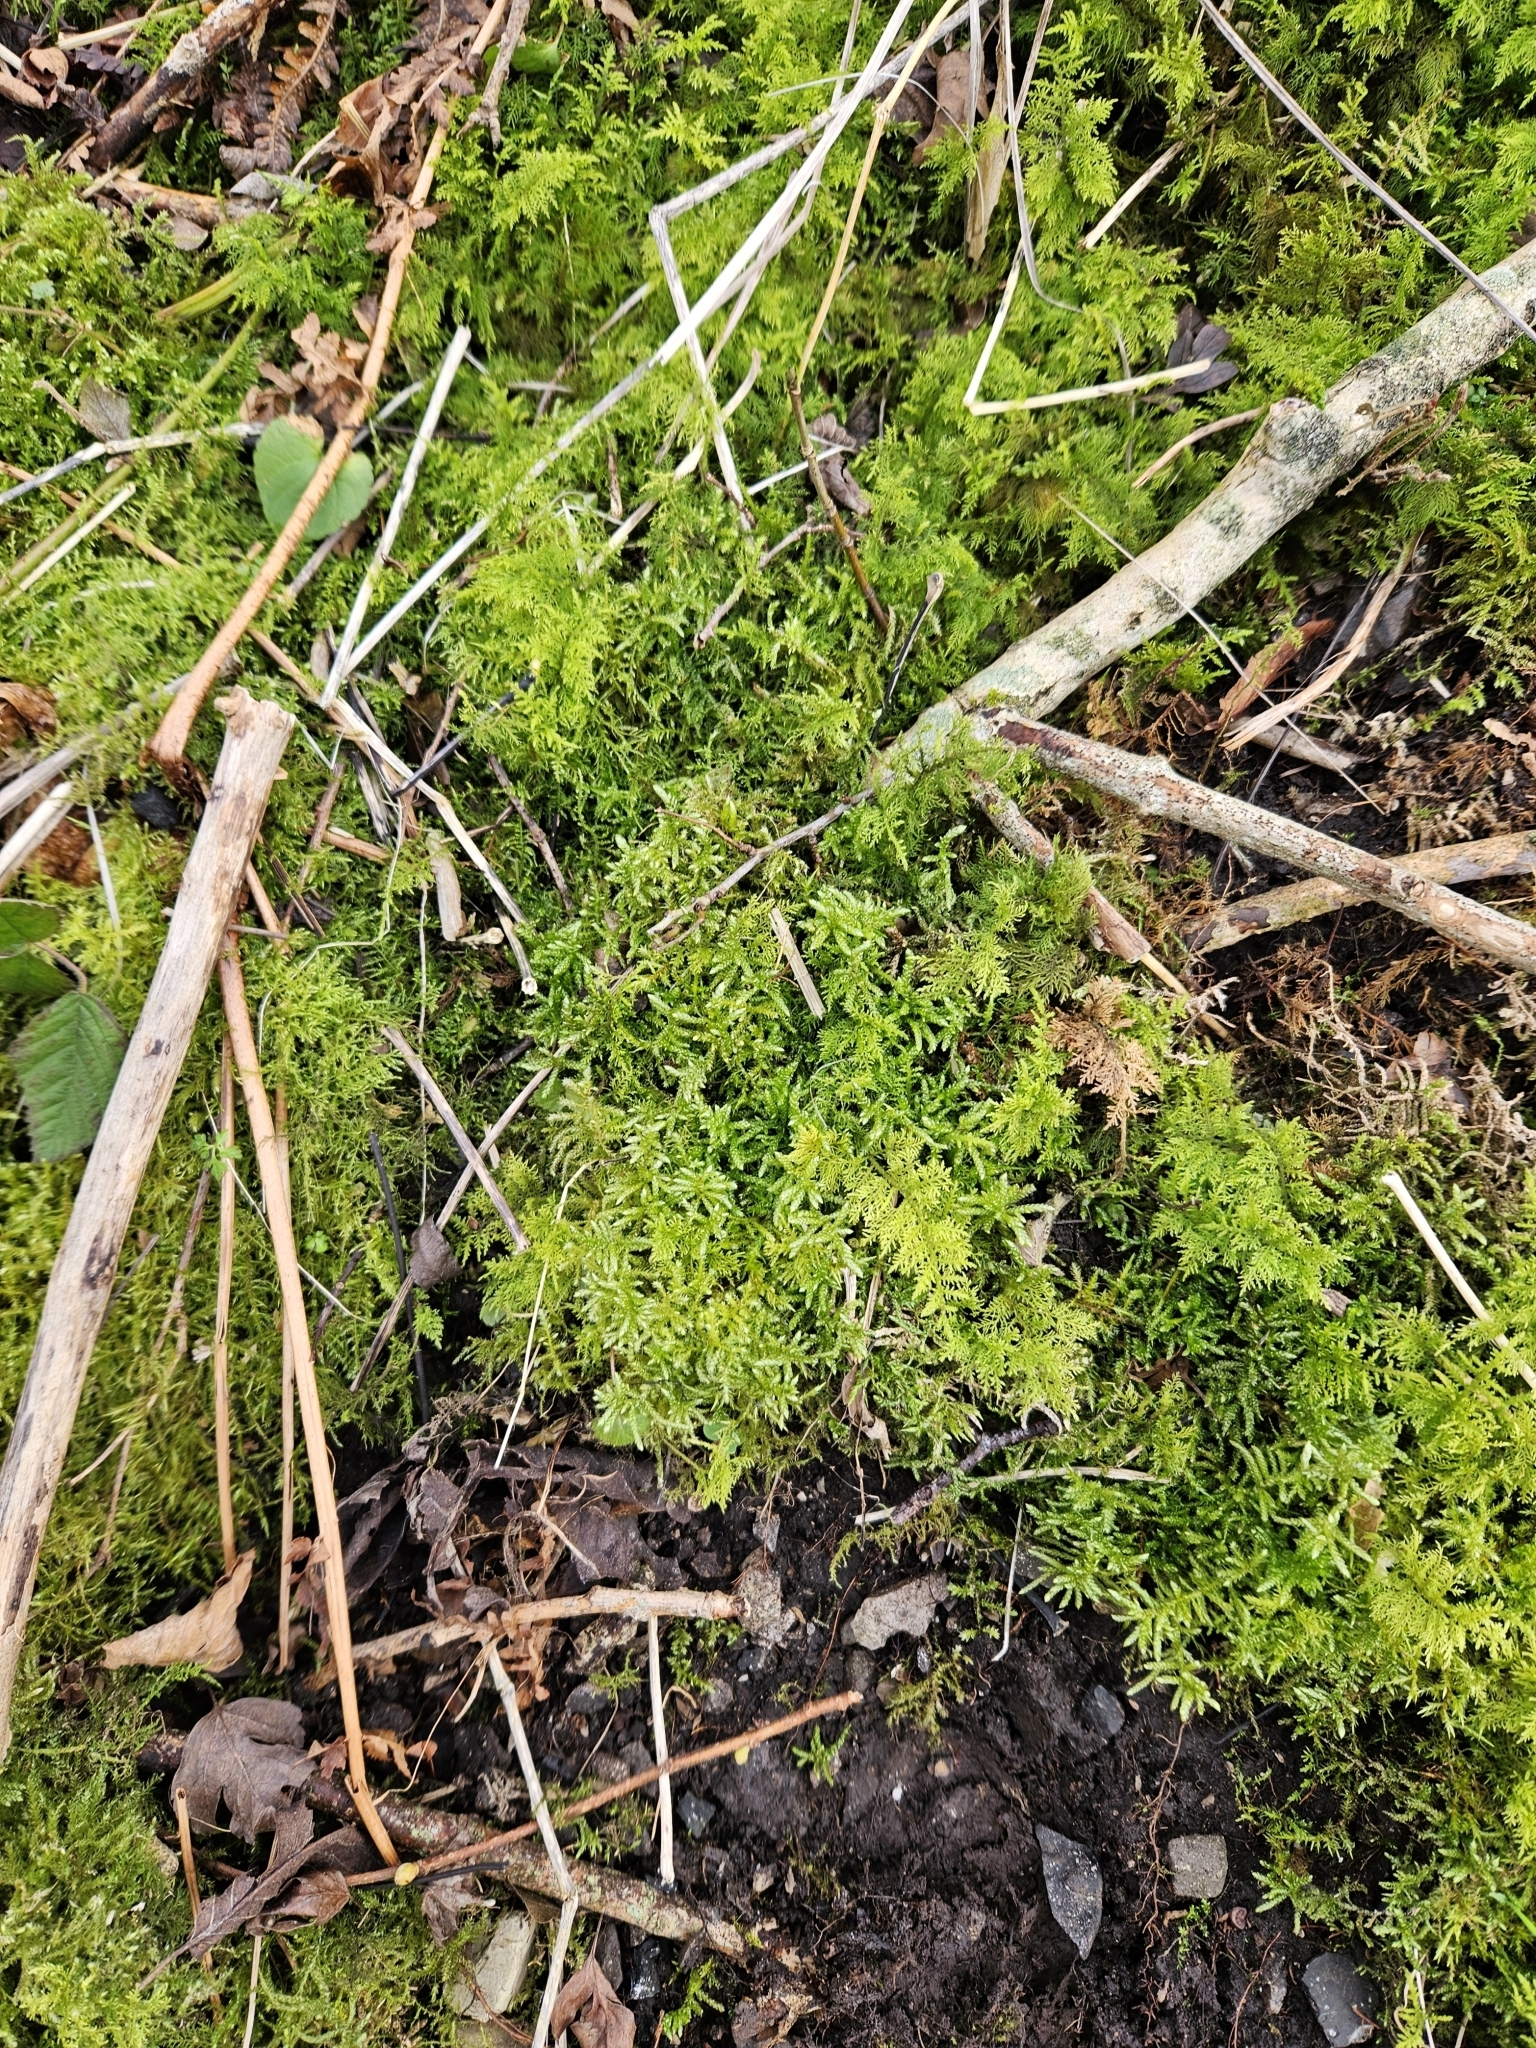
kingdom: Plantae
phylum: Bryophyta
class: Bryopsida
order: Hypnales
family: Brachytheciaceae
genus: Pseudoscleropodium
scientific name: Pseudoscleropodium purum
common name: Neat feather-moss
